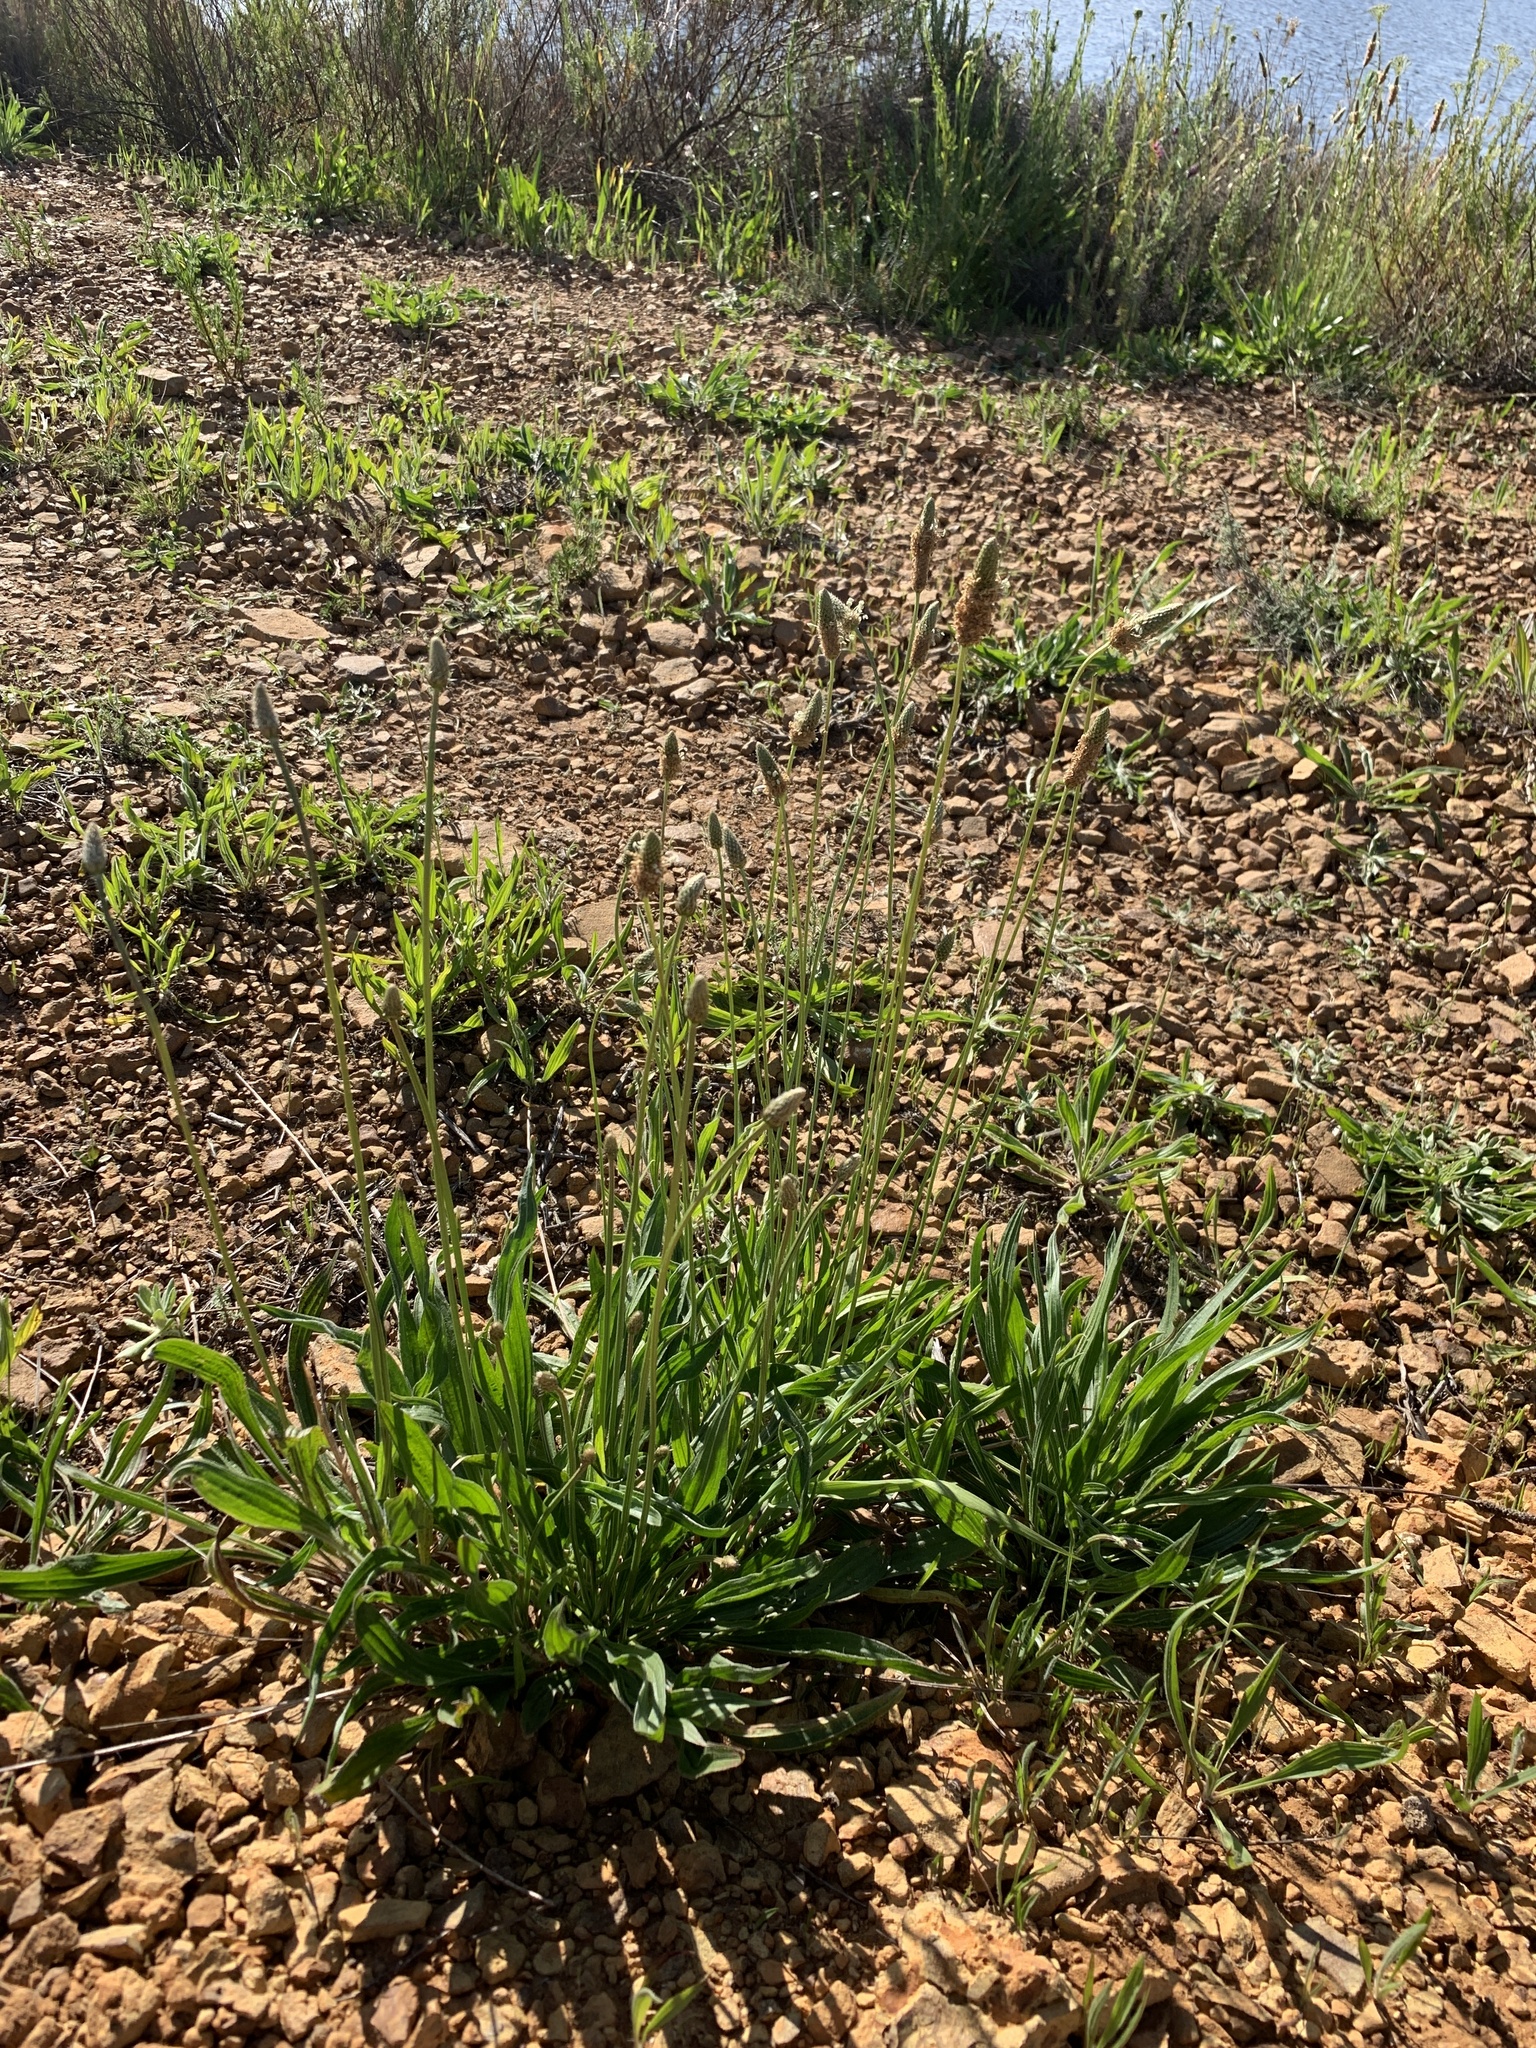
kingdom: Plantae
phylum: Tracheophyta
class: Magnoliopsida
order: Lamiales
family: Plantaginaceae
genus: Plantago
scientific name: Plantago lanceolata
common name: Ribwort plantain
